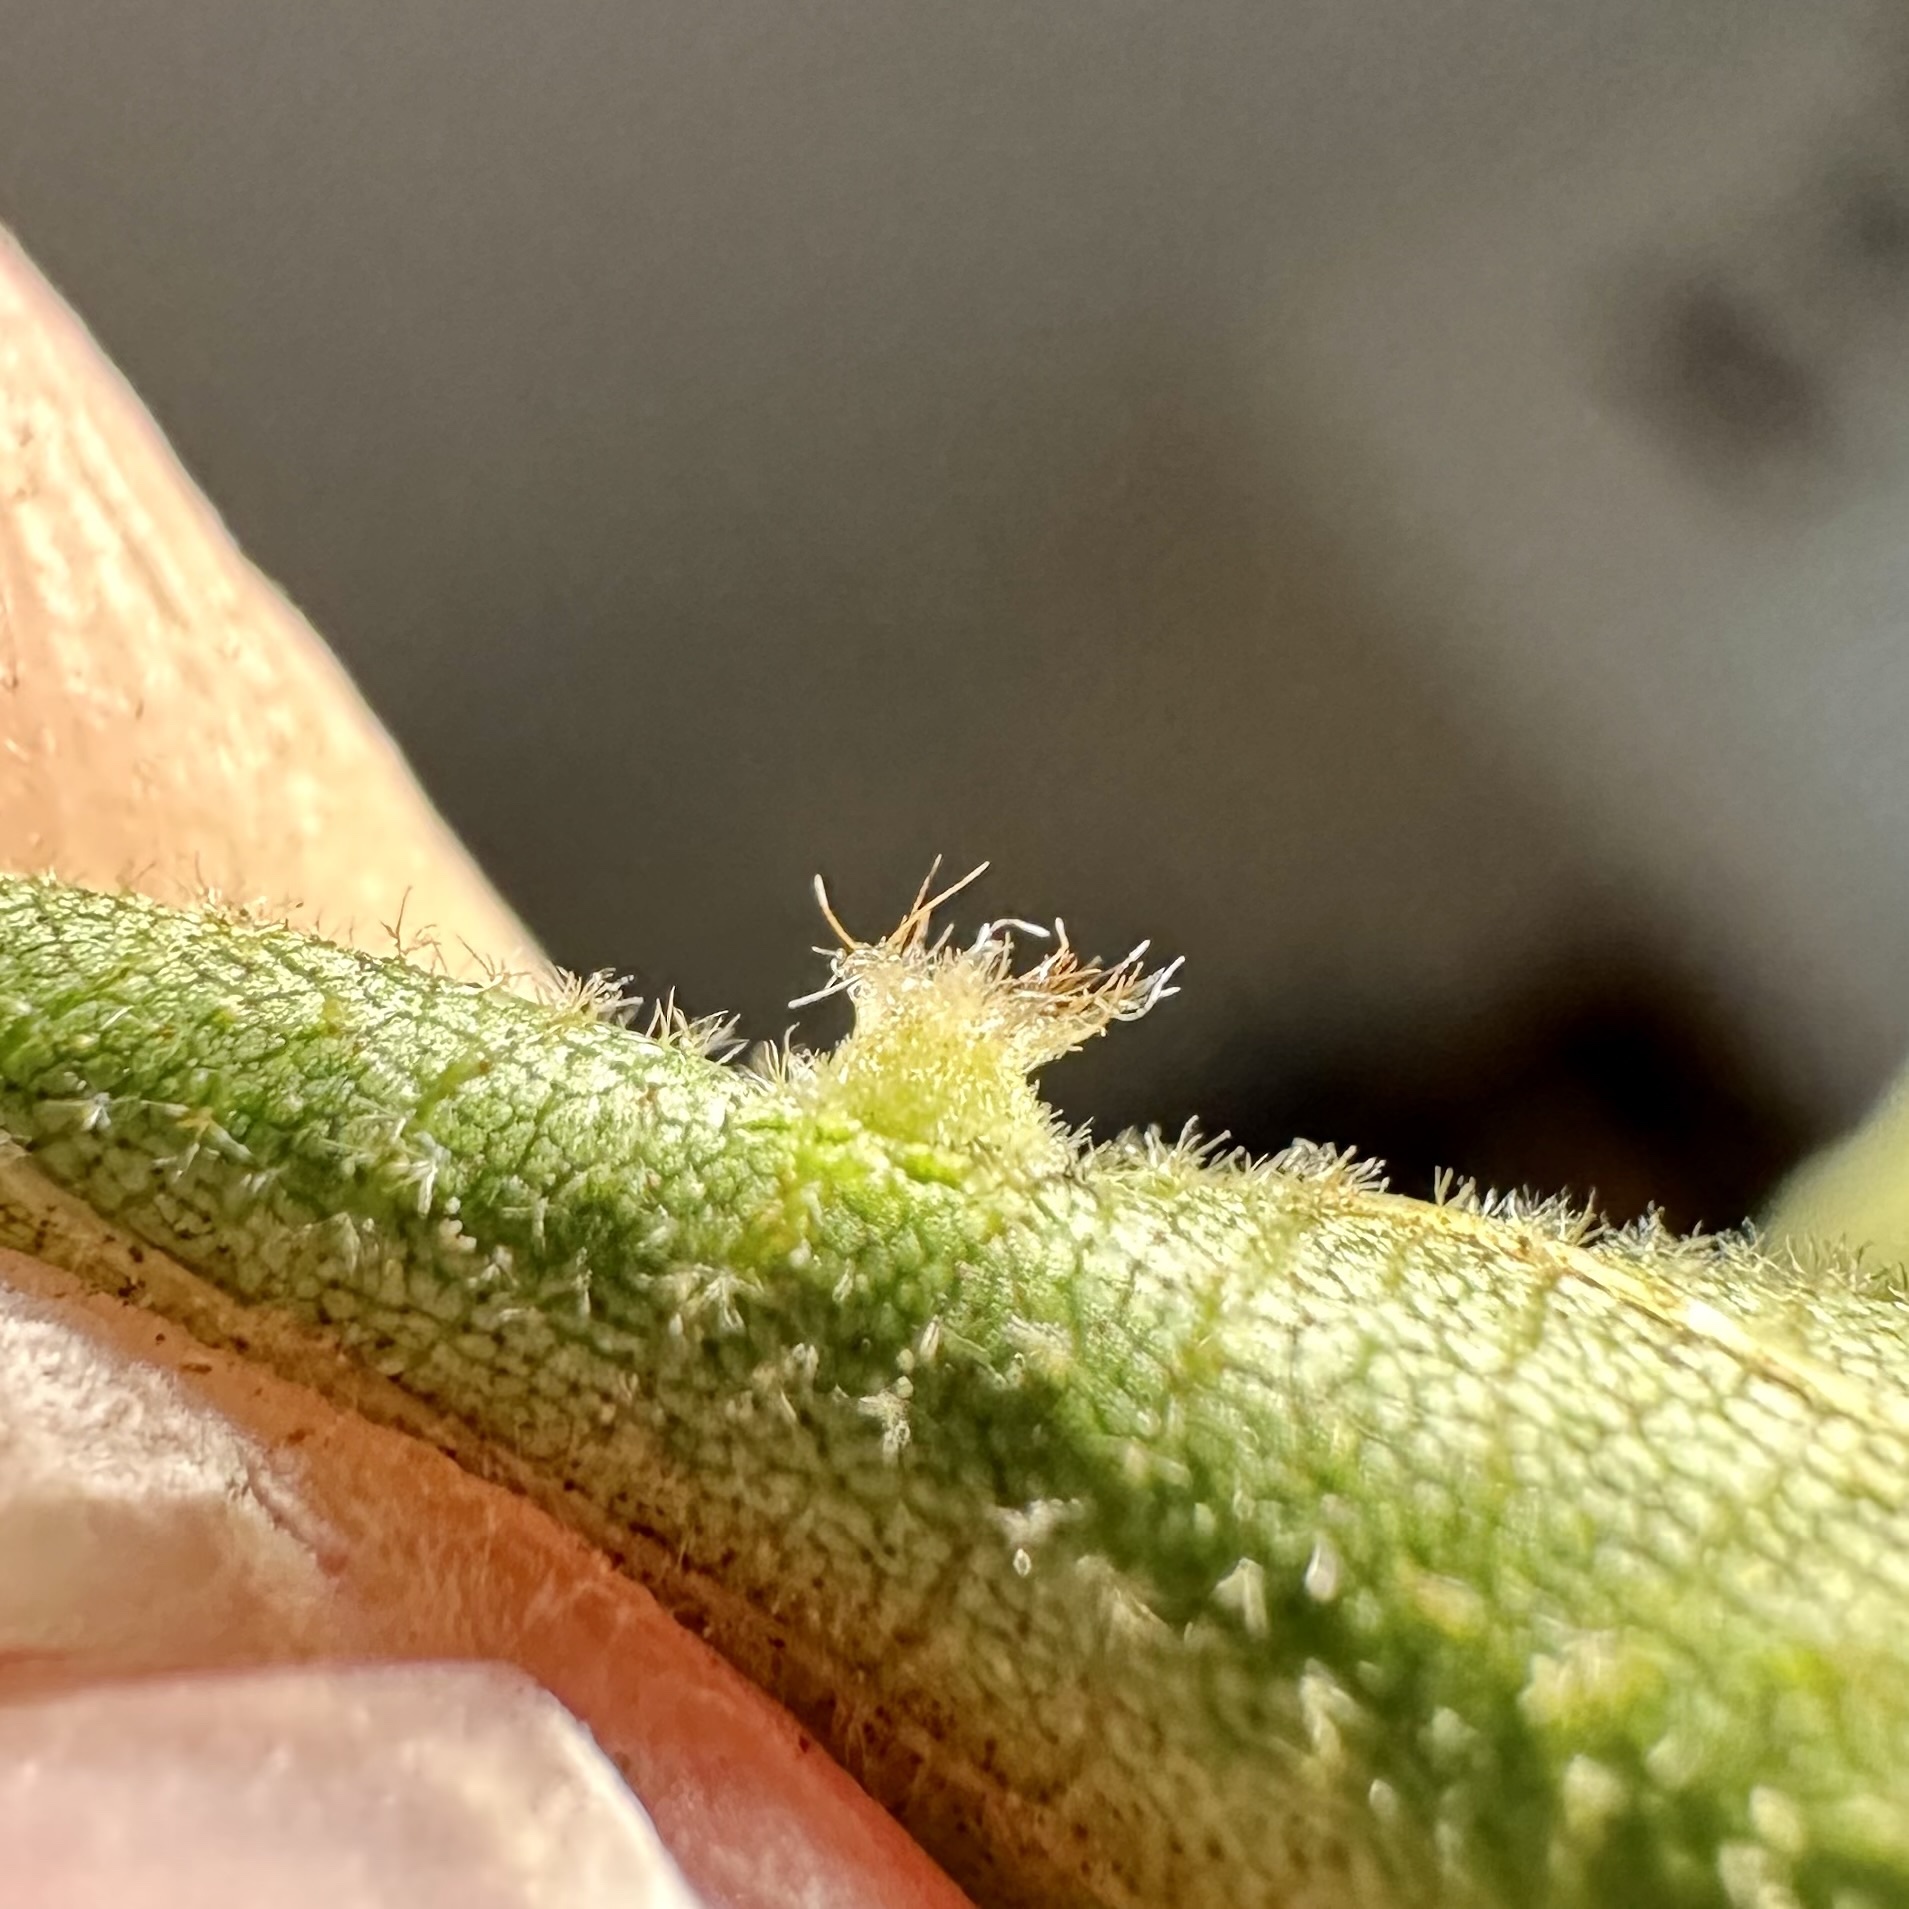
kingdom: Animalia
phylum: Arthropoda
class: Insecta
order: Diptera
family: Cecidomyiidae
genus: Caryomyia
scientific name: Caryomyia hirtidolium
